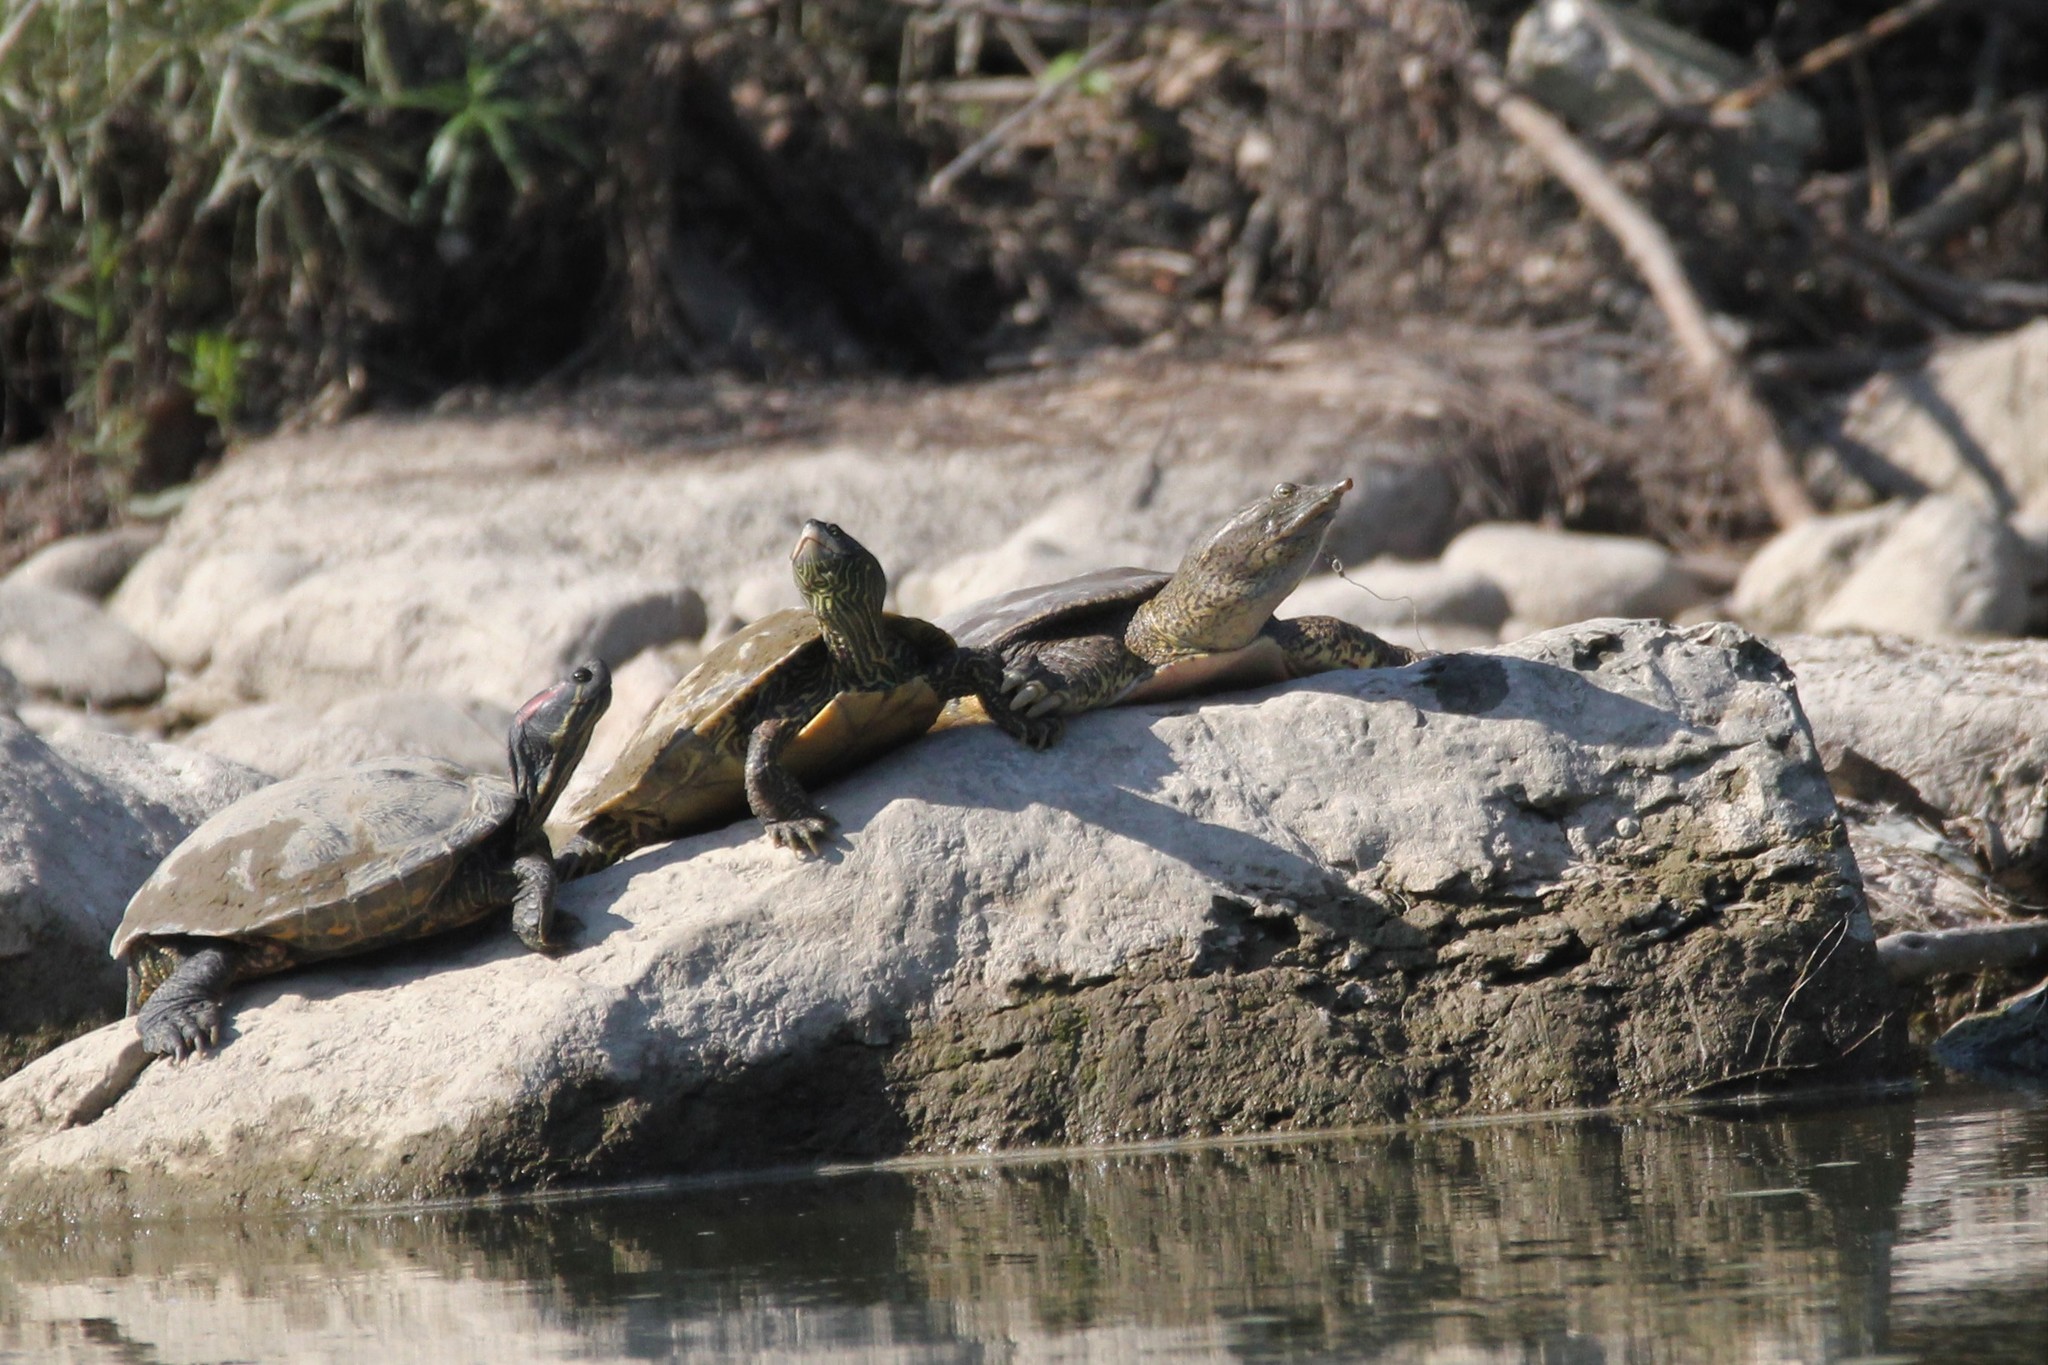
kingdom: Animalia
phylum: Chordata
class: Testudines
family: Trionychidae
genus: Apalone
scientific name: Apalone spinifera
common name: Spiny softshell turtle
